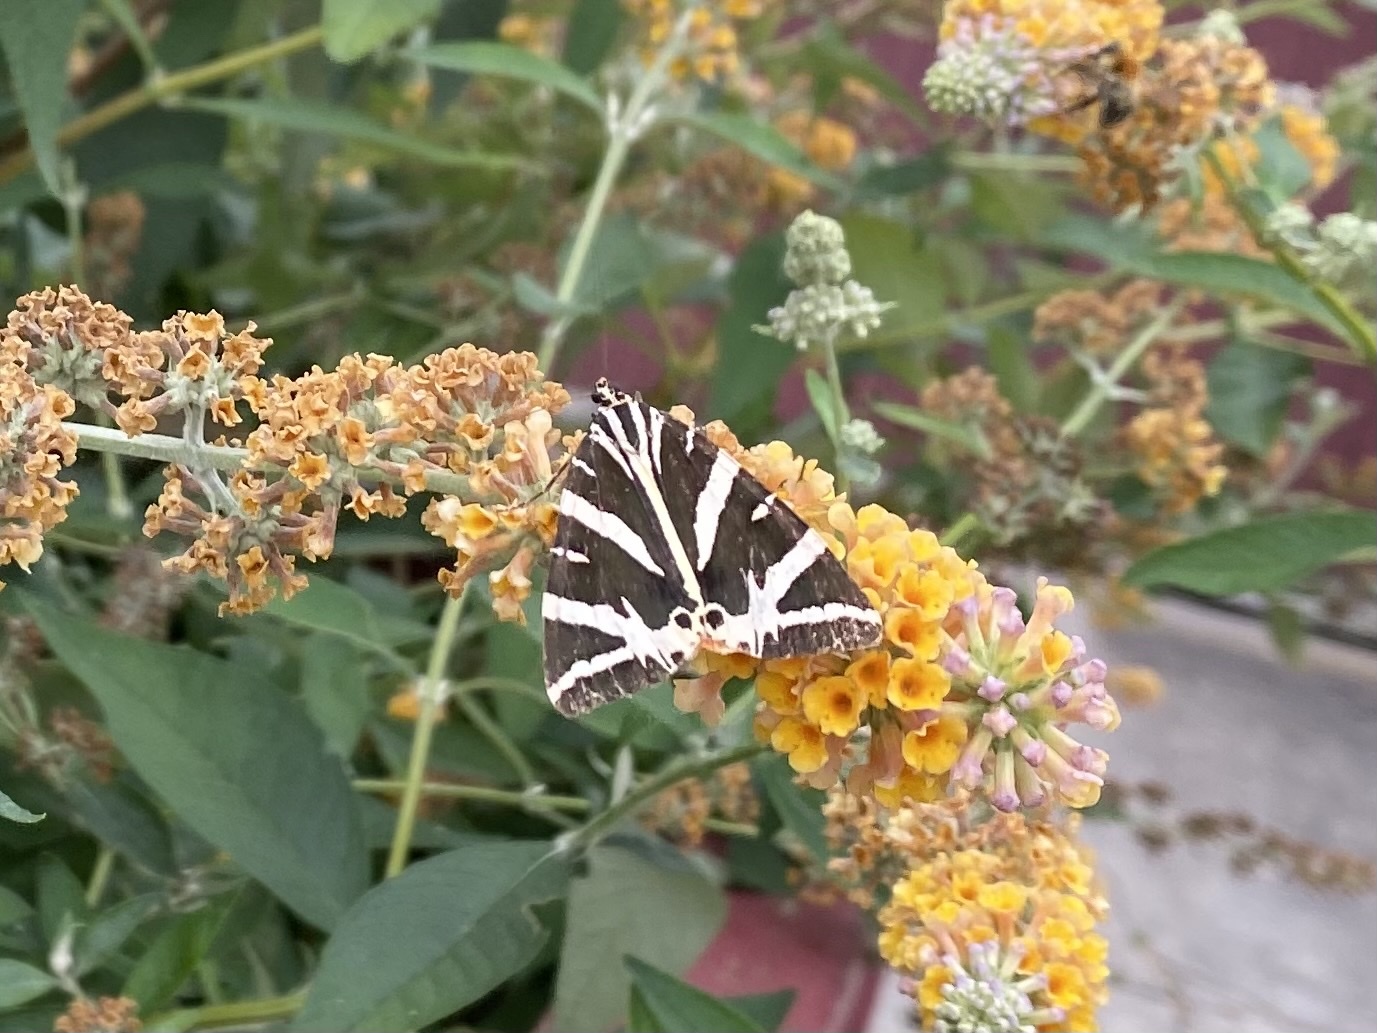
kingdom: Animalia
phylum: Arthropoda
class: Insecta
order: Lepidoptera
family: Erebidae
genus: Euplagia
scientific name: Euplagia quadripunctaria
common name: Jersey tiger
